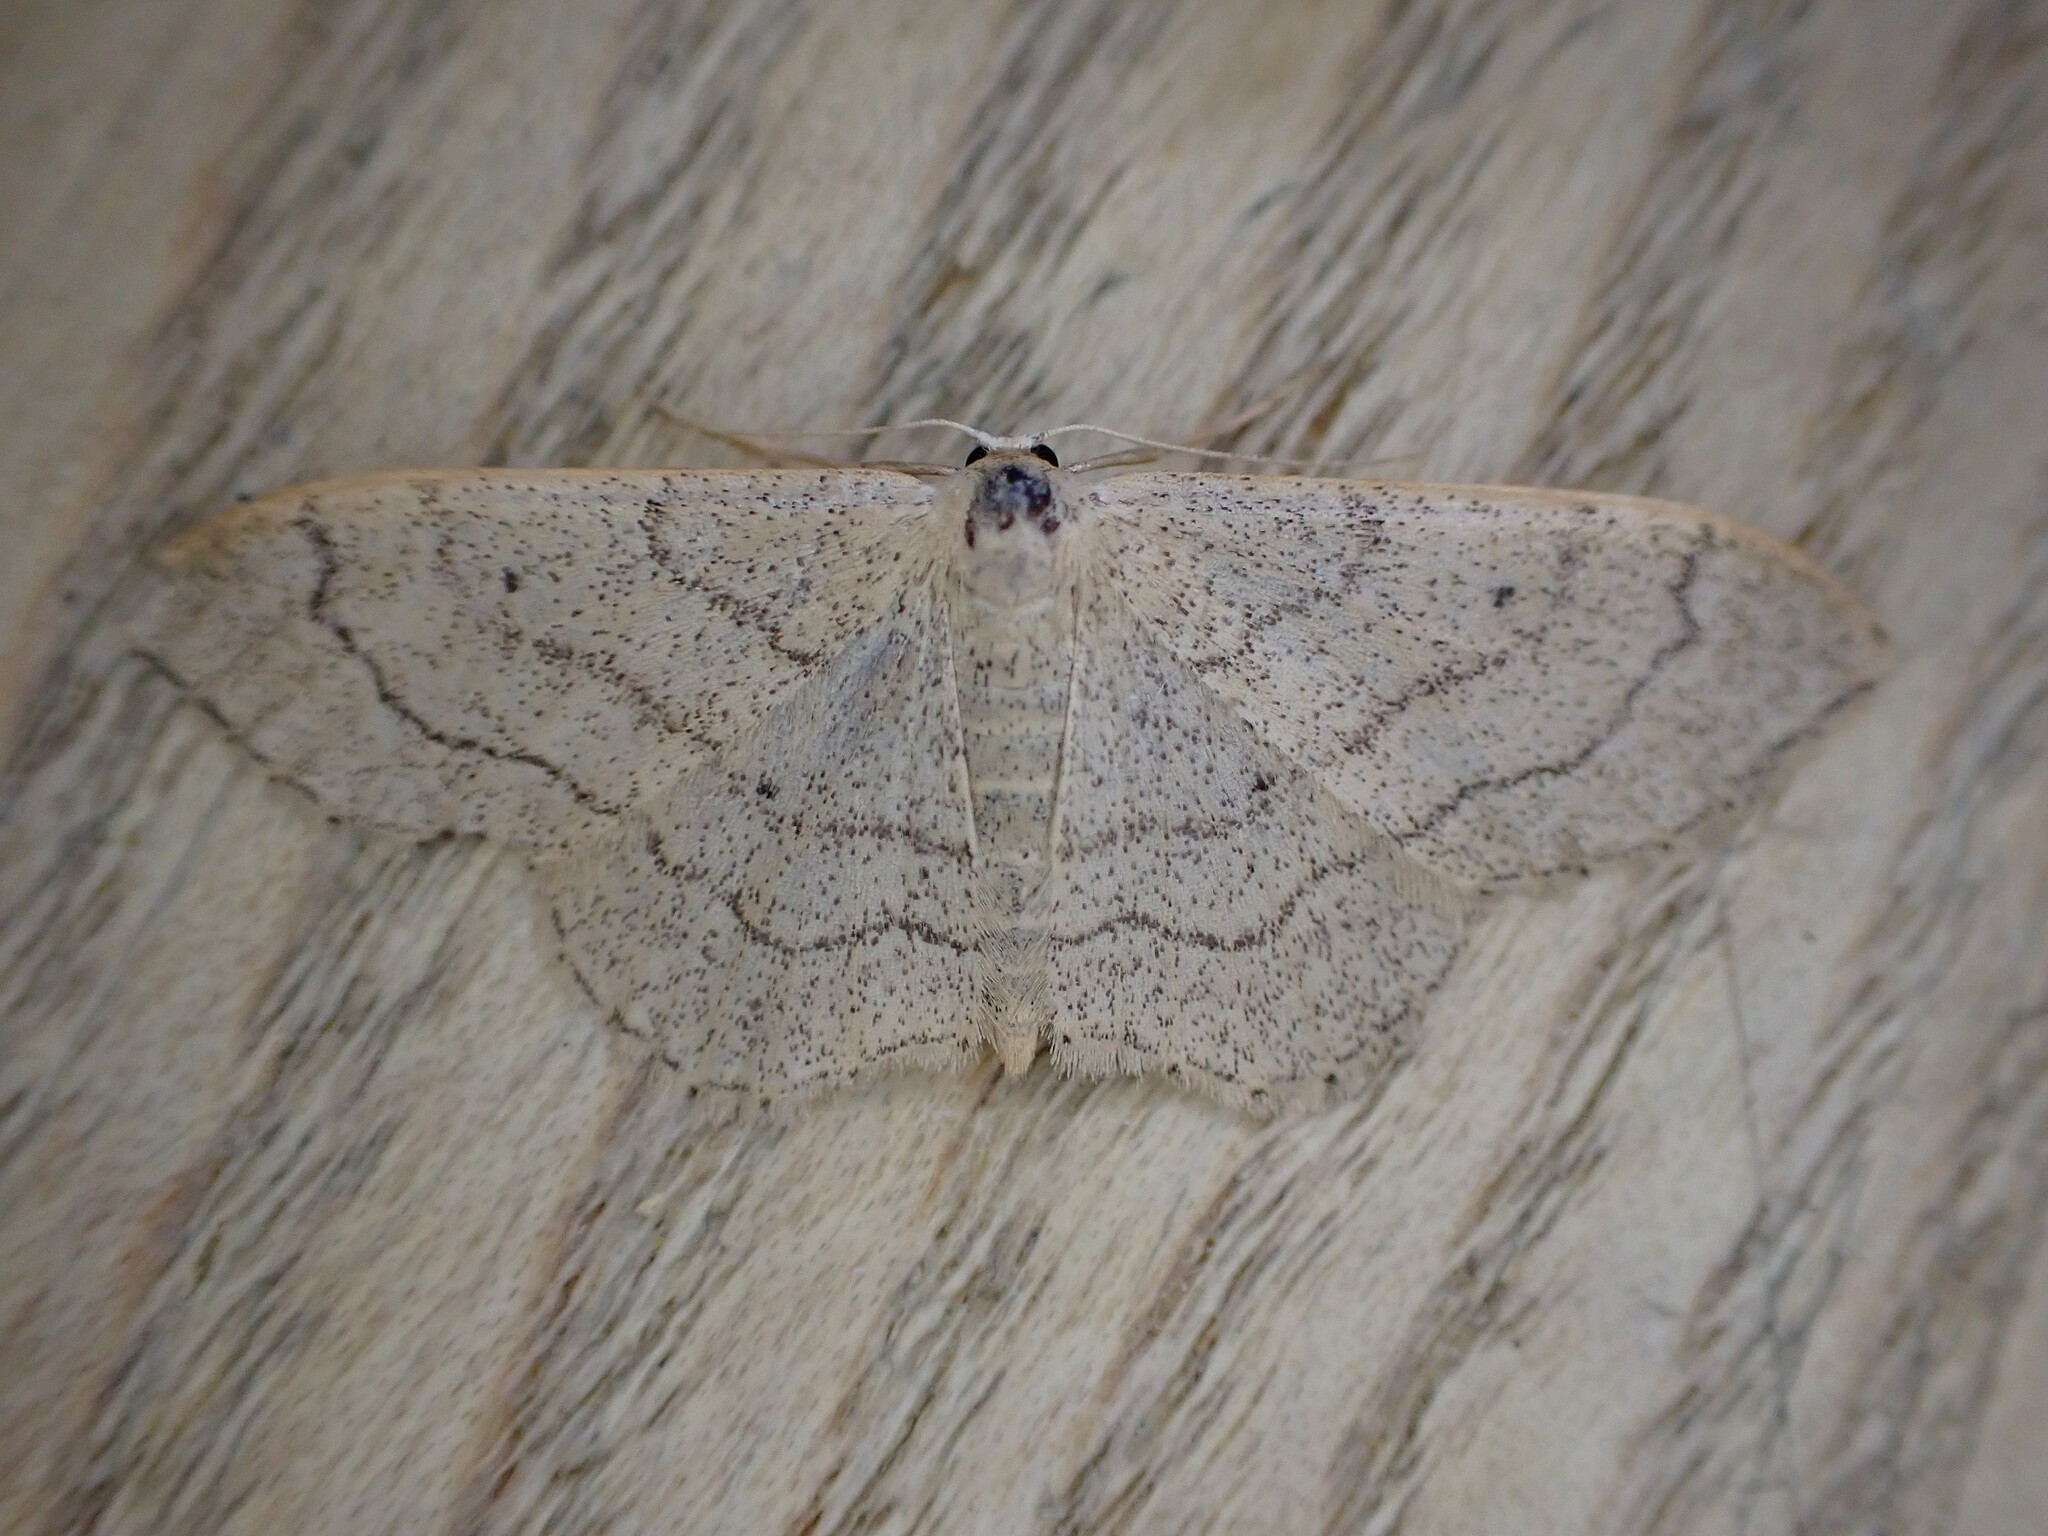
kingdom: Animalia
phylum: Arthropoda
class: Insecta
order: Lepidoptera
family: Geometridae
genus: Idaea
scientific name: Idaea aversata
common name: Riband wave
